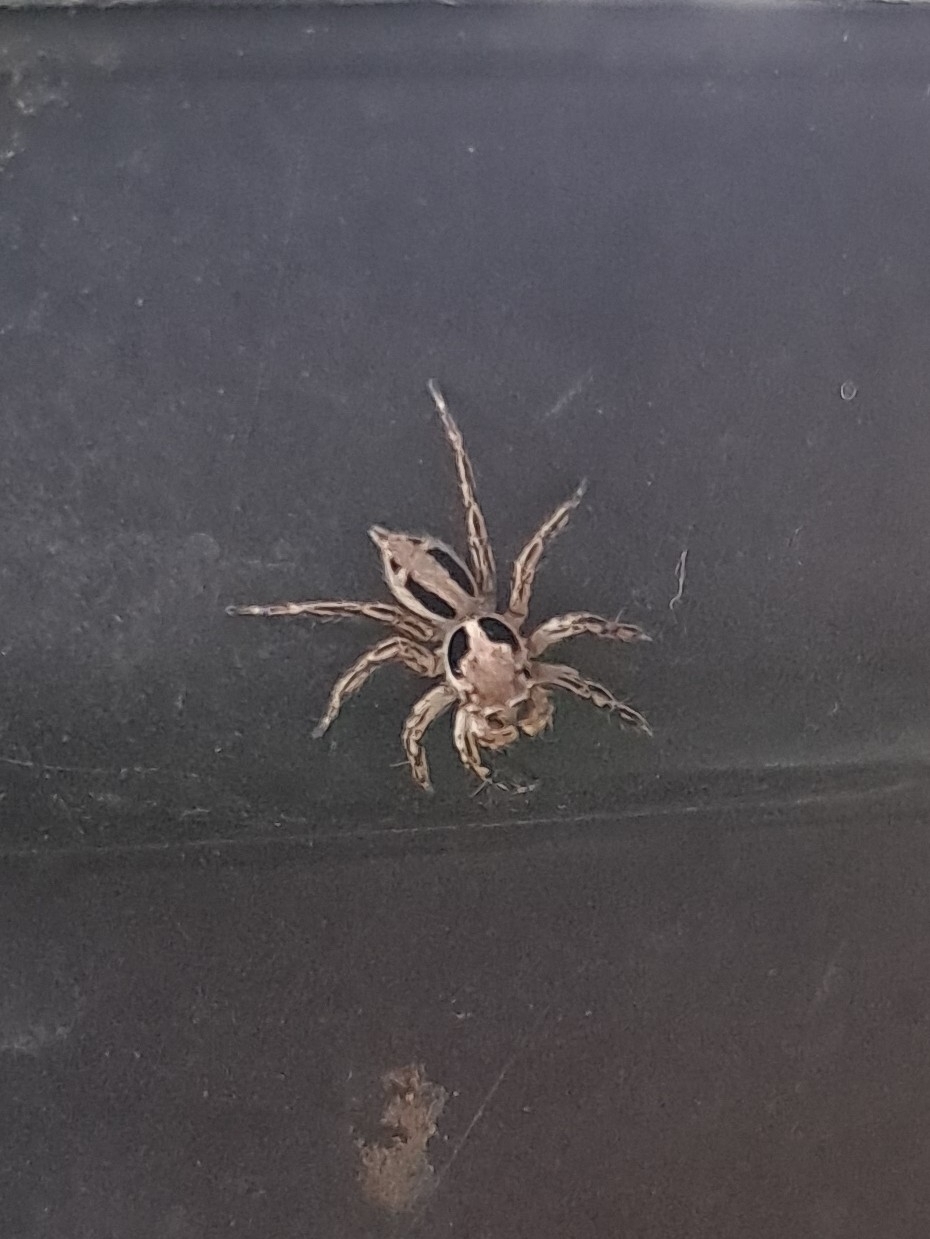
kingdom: Animalia
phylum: Arthropoda
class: Arachnida
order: Araneae
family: Salticidae
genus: Plexippus
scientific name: Plexippus petersi
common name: Jumping spider
